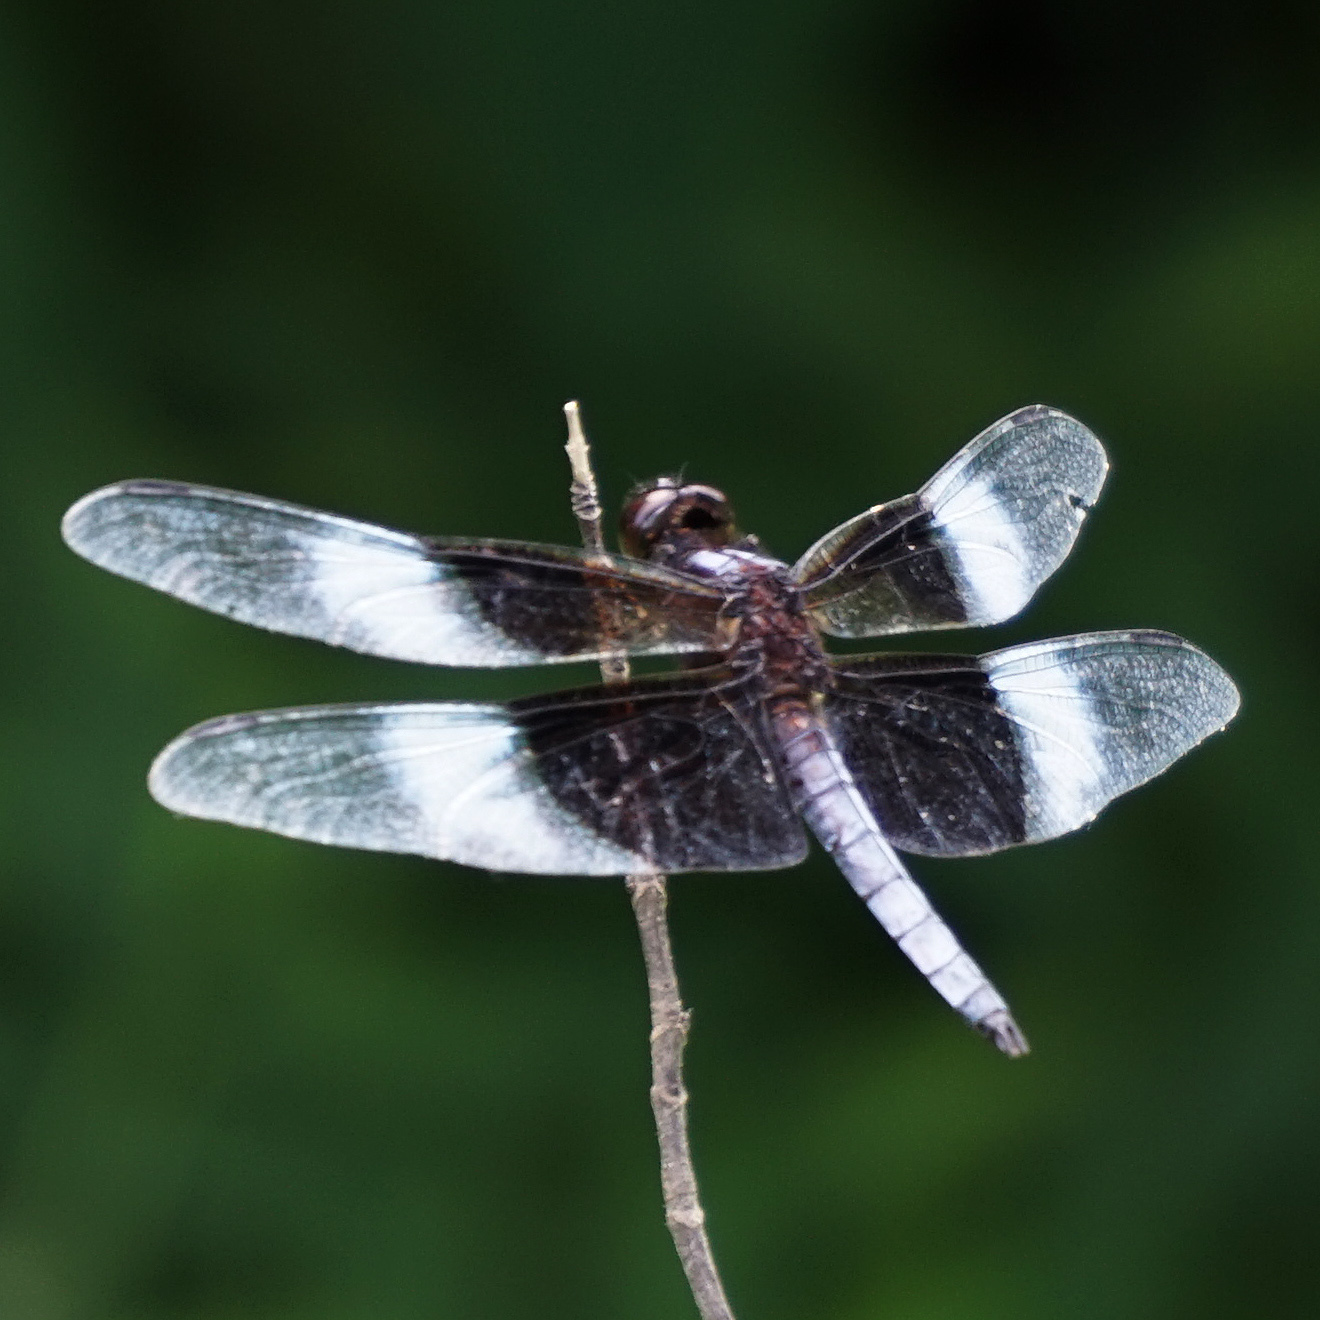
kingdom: Animalia
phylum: Arthropoda
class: Insecta
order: Odonata
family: Libellulidae
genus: Libellula
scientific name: Libellula luctuosa
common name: Widow skimmer
